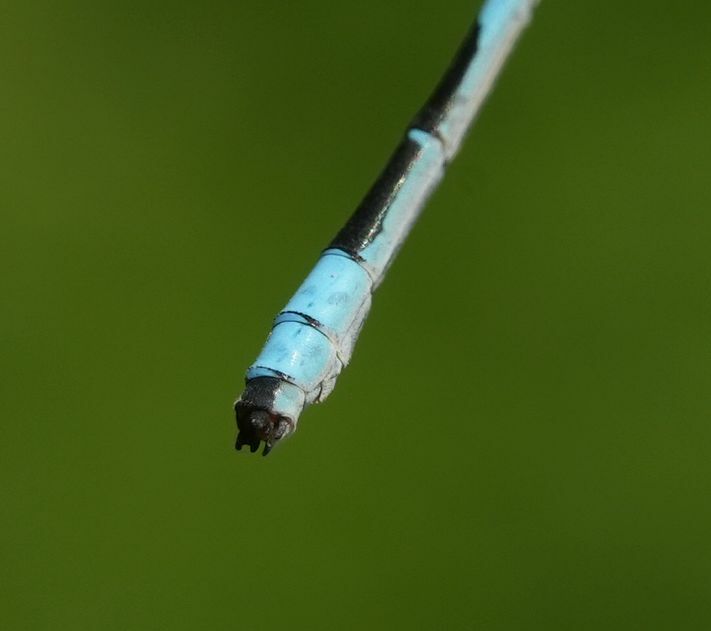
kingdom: Animalia
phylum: Arthropoda
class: Insecta
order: Odonata
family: Coenagrionidae
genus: Enallagma
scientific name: Enallagma ebrium
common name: Marsh bluet
